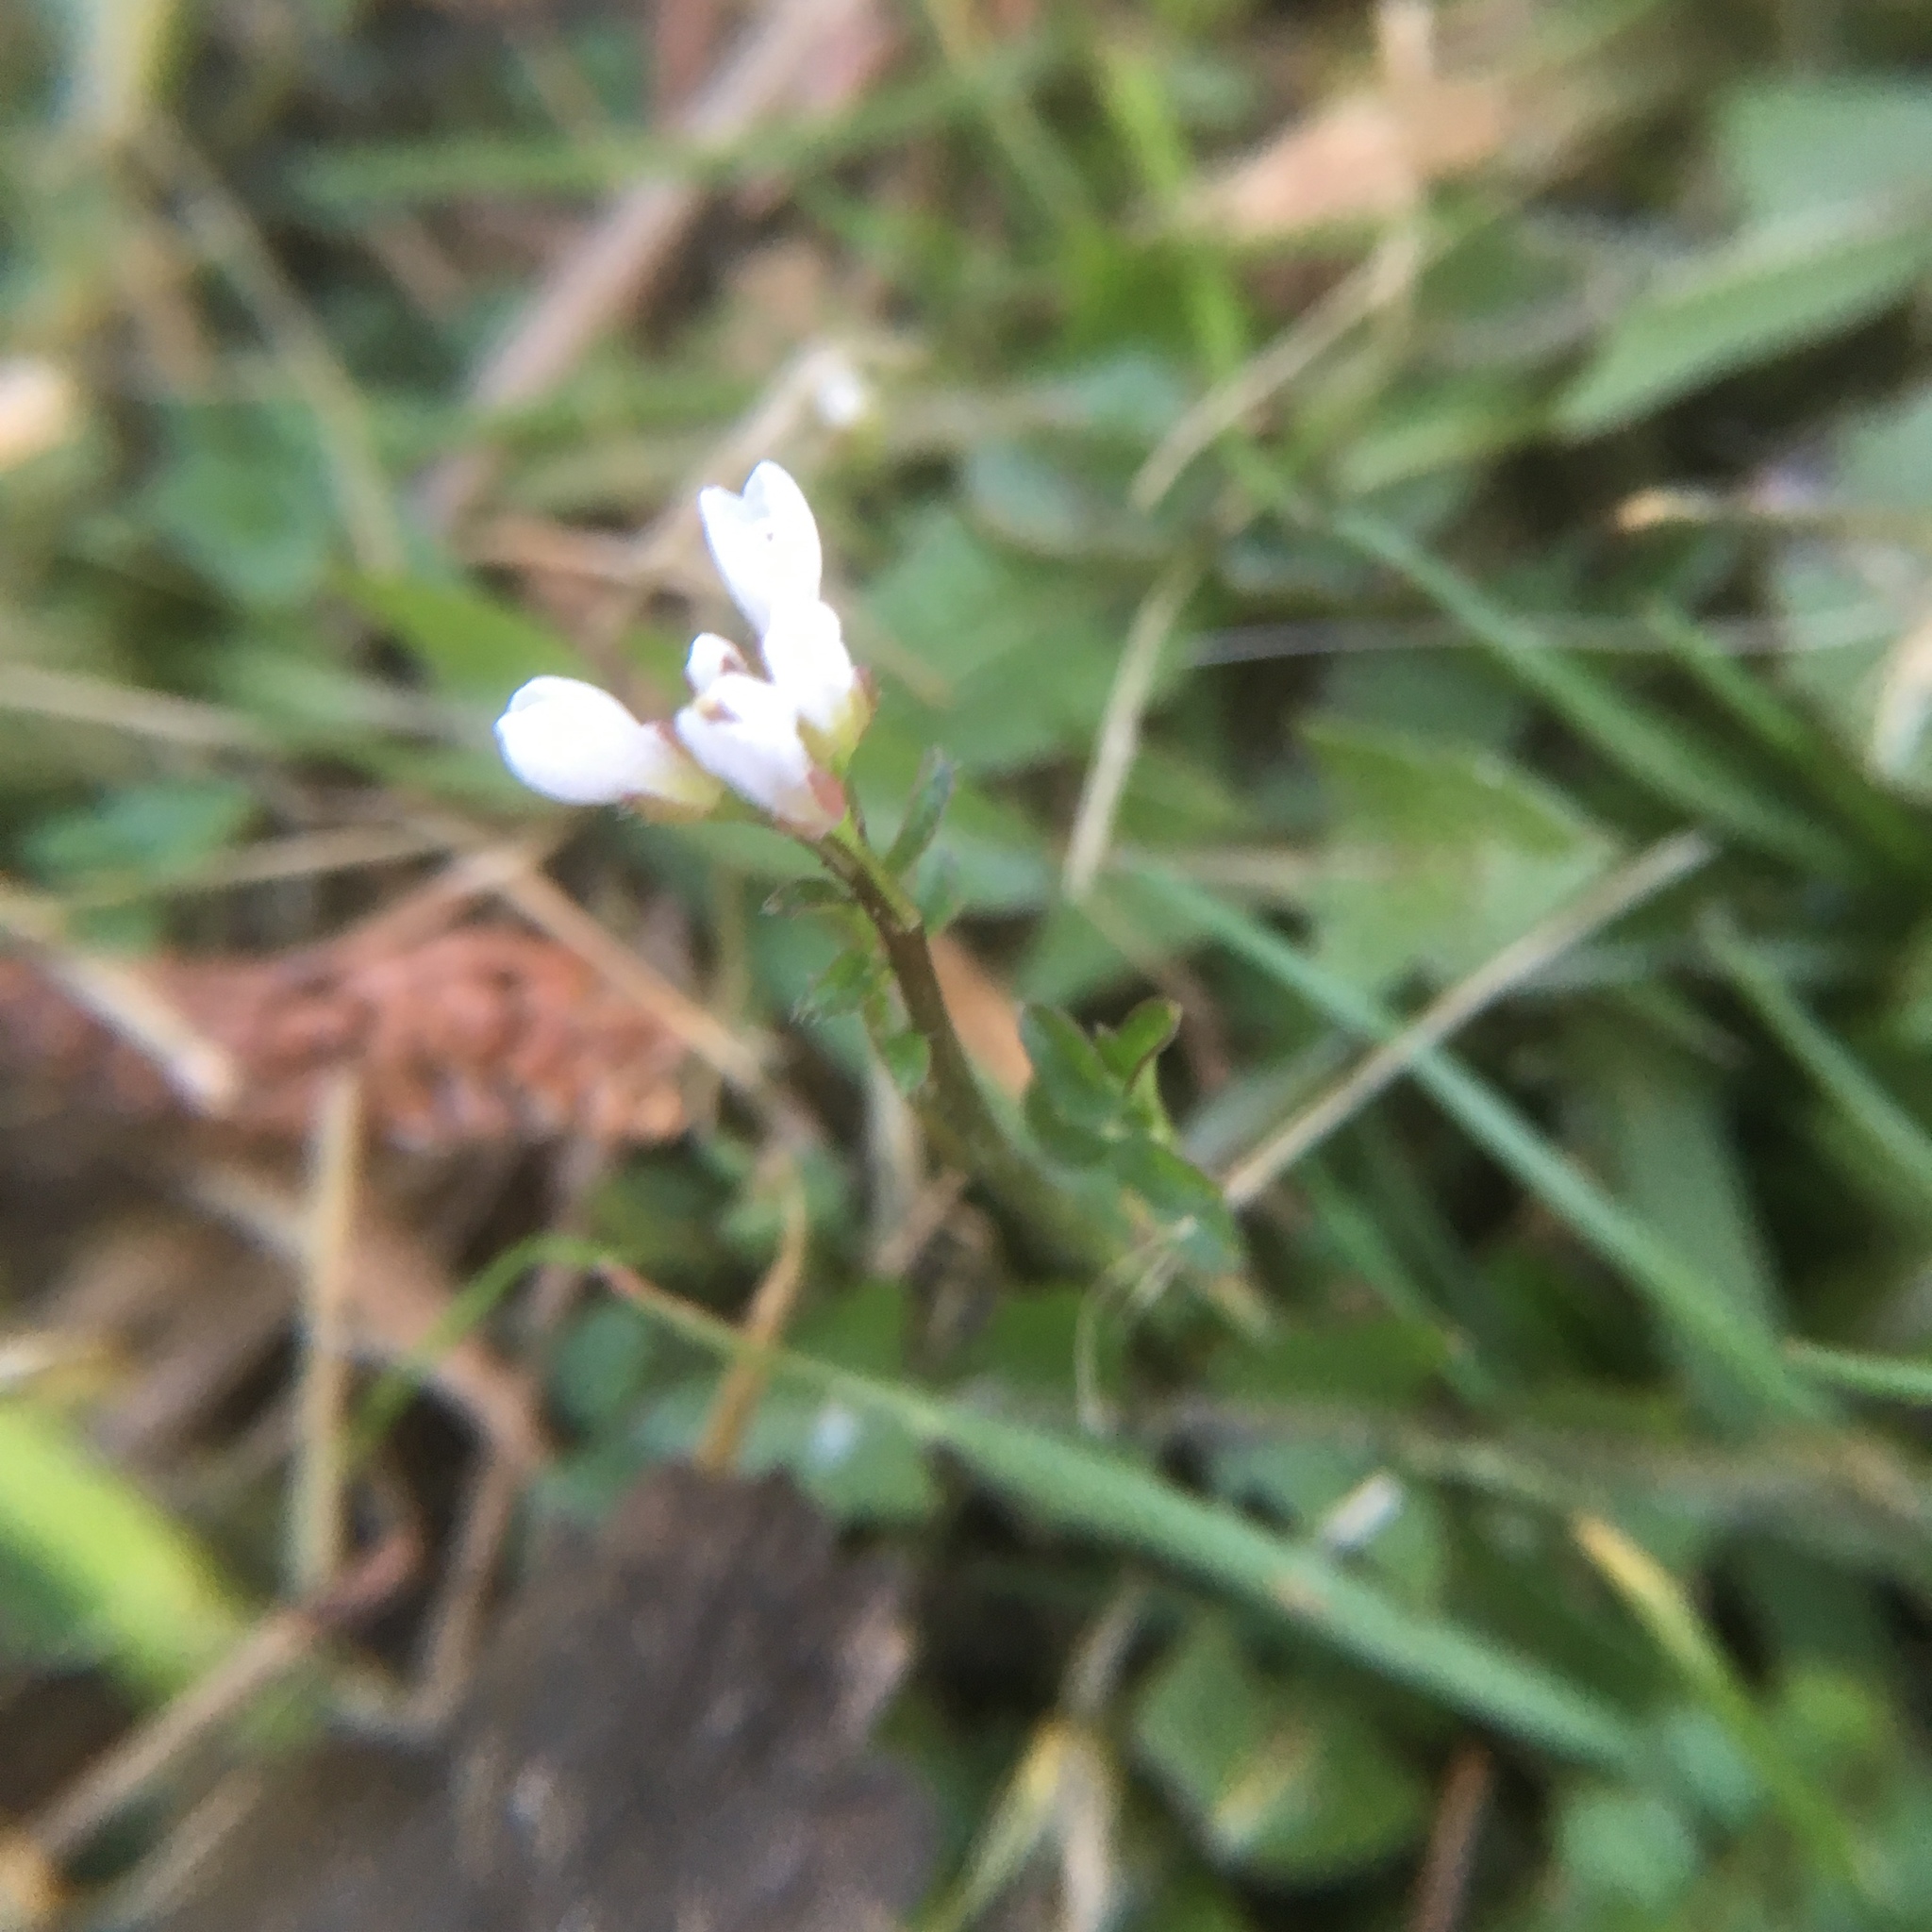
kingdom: Plantae
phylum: Tracheophyta
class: Magnoliopsida
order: Brassicales
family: Brassicaceae
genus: Cardamine
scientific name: Cardamine hirsuta
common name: Hairy bittercress
